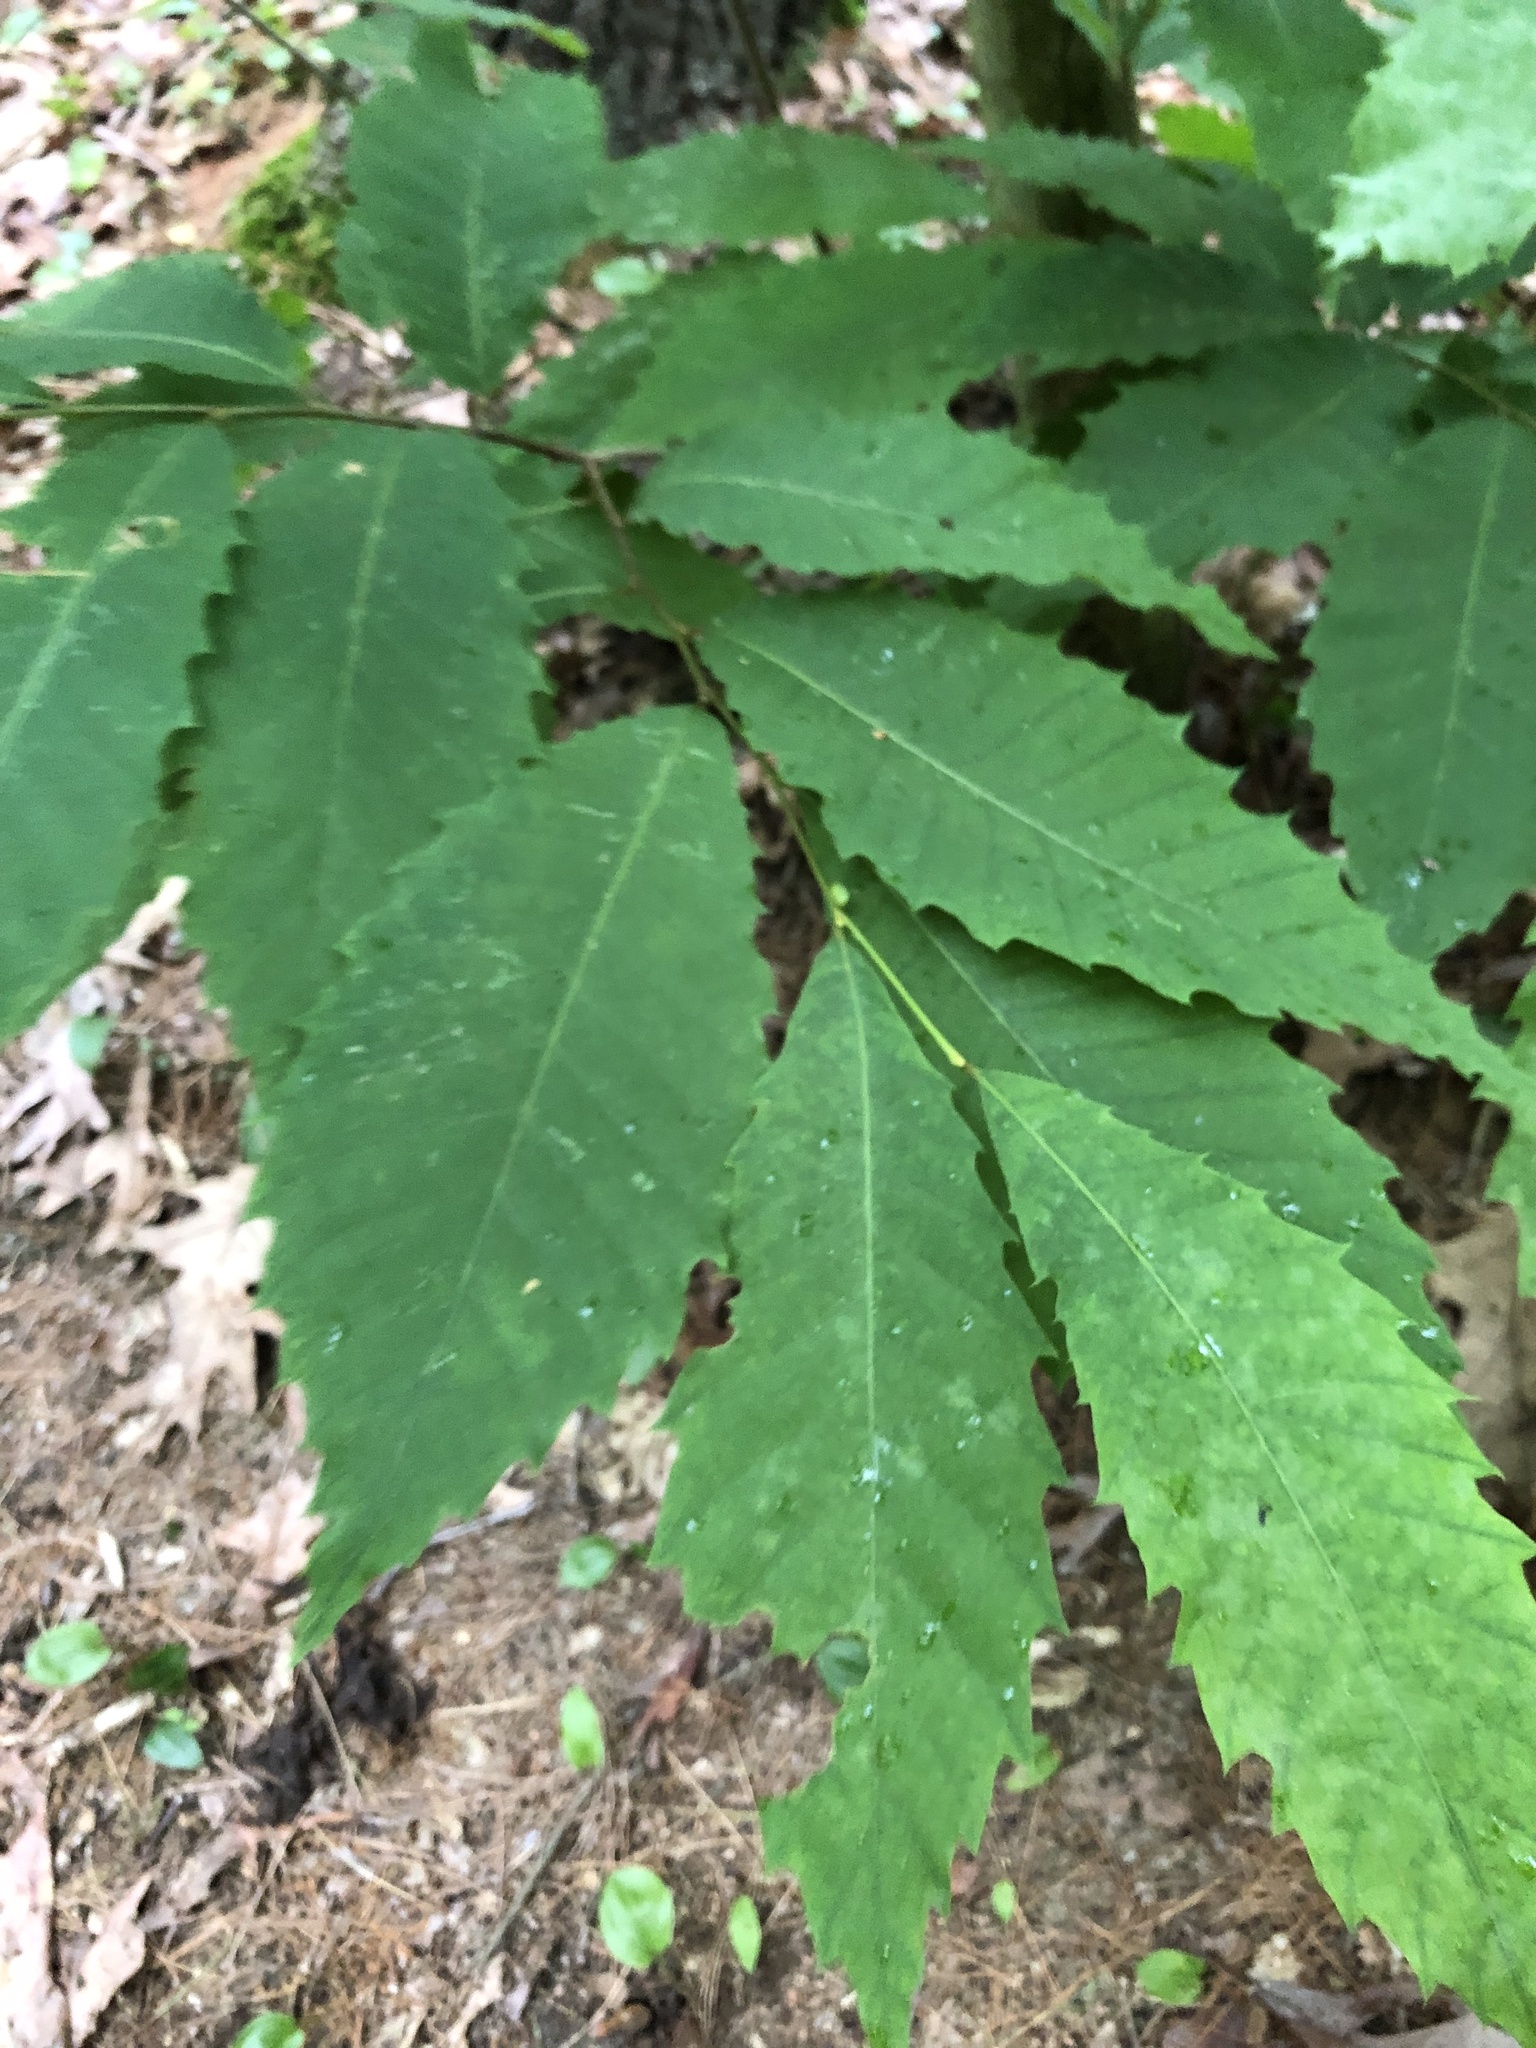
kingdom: Plantae
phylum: Tracheophyta
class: Magnoliopsida
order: Fagales
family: Fagaceae
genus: Castanea
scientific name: Castanea dentata
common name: American chestnut
